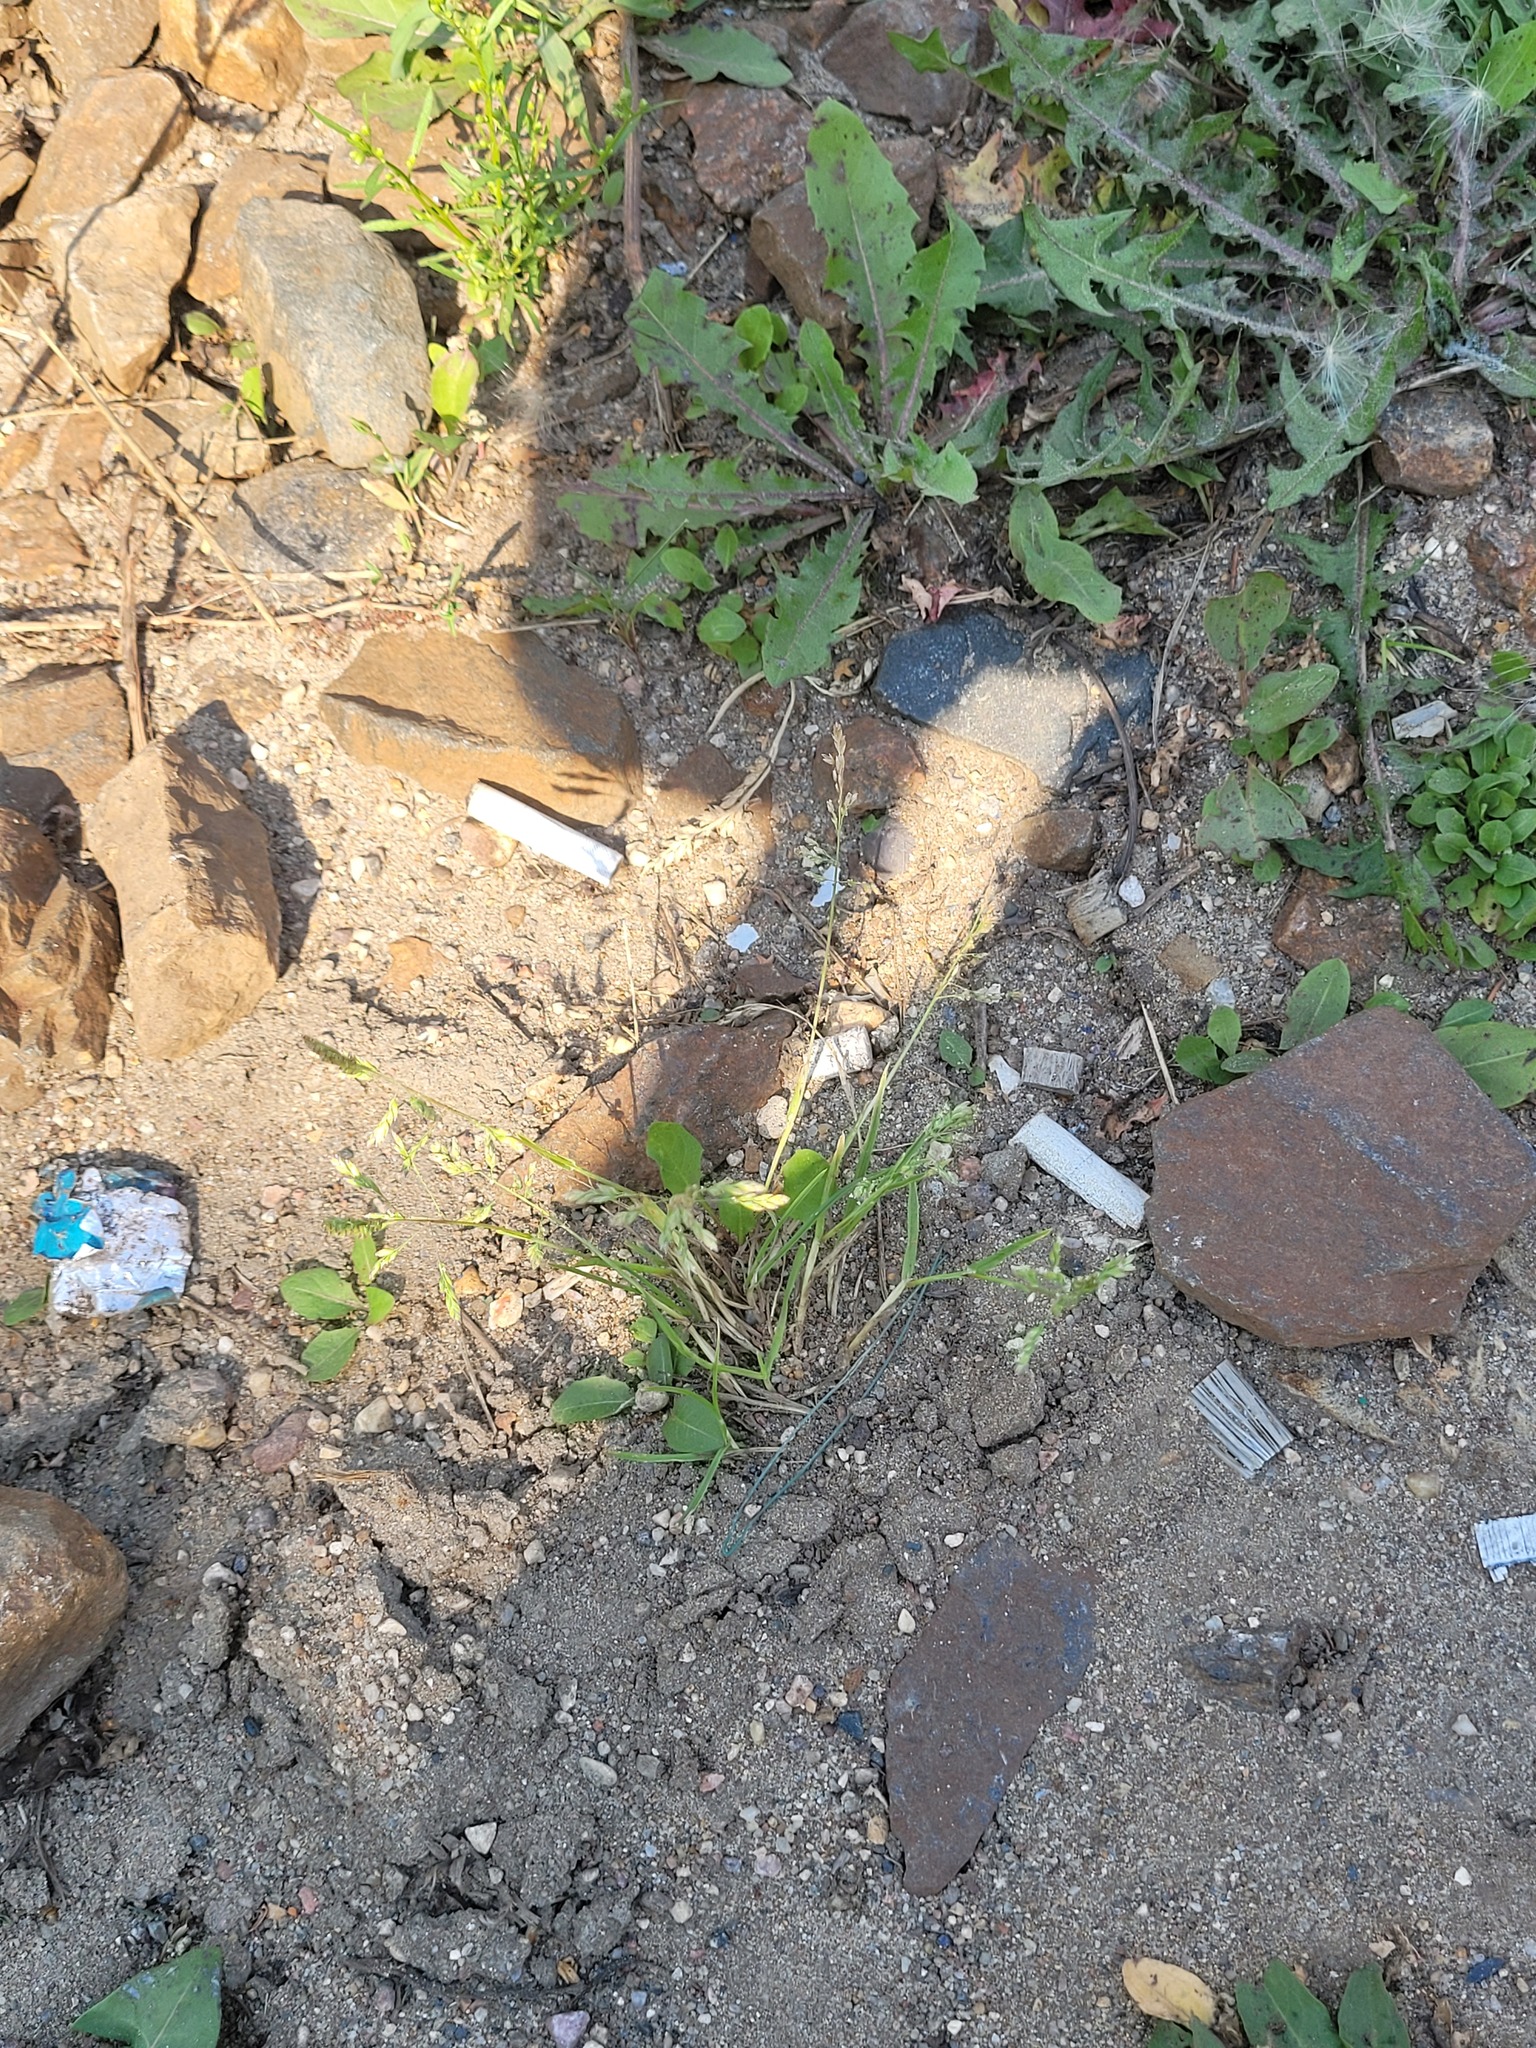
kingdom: Plantae
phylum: Tracheophyta
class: Liliopsida
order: Poales
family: Poaceae
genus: Poa
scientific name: Poa annua
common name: Annual bluegrass
